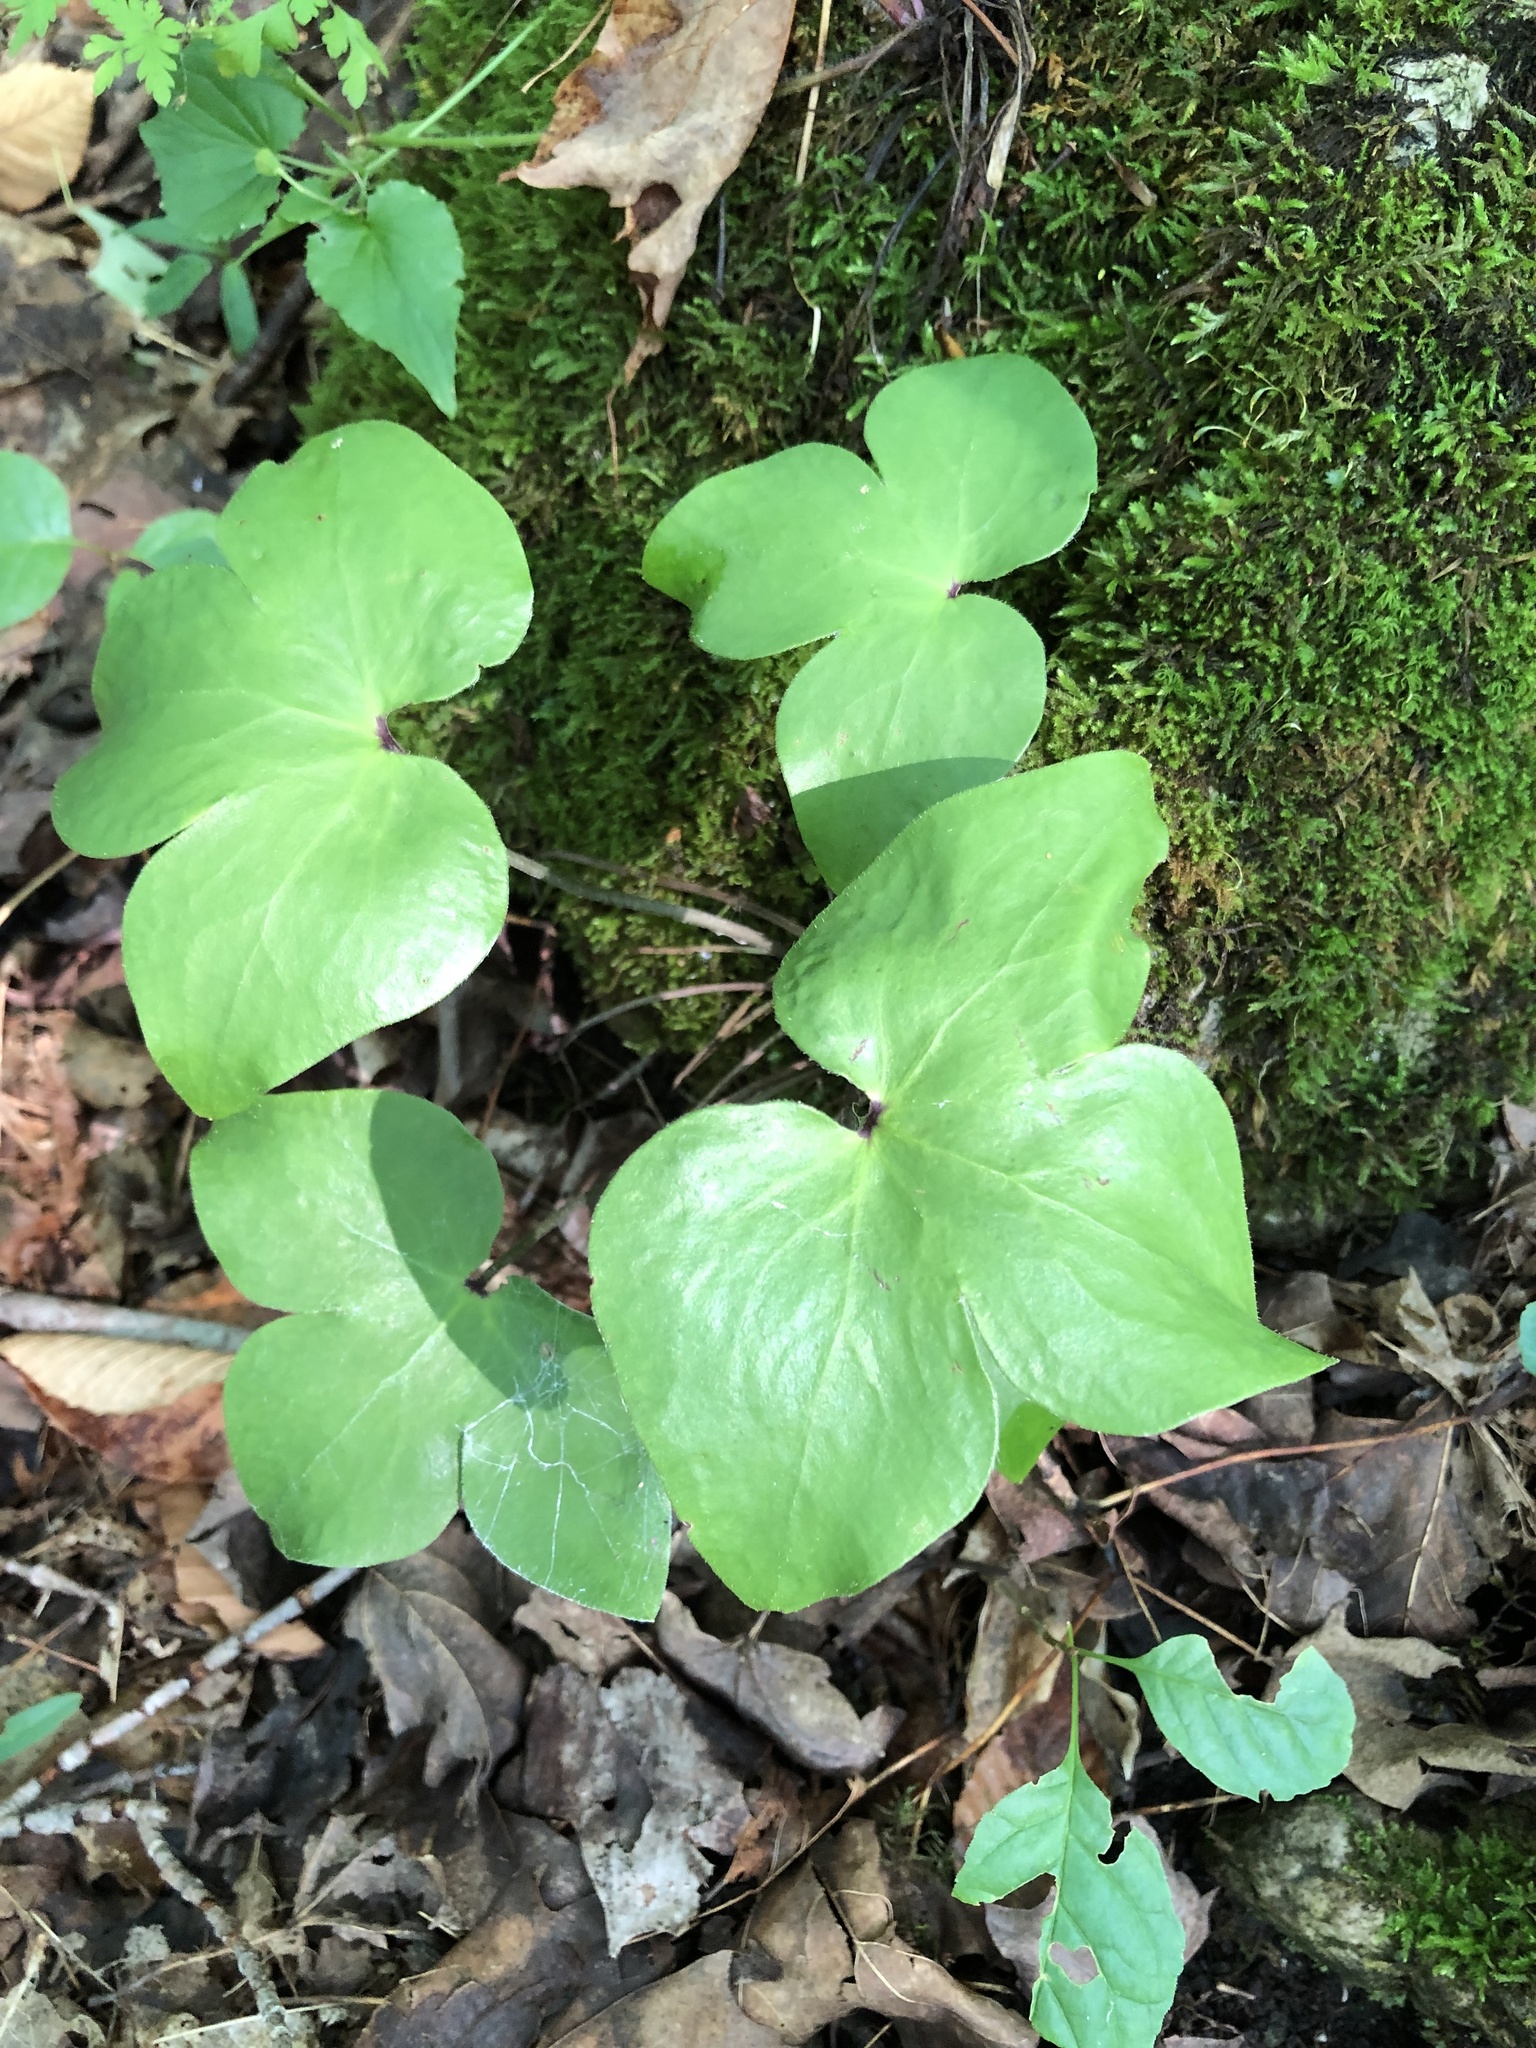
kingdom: Plantae
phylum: Tracheophyta
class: Magnoliopsida
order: Ranunculales
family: Ranunculaceae
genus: Hepatica
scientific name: Hepatica acutiloba
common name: Sharp-lobed hepatica
